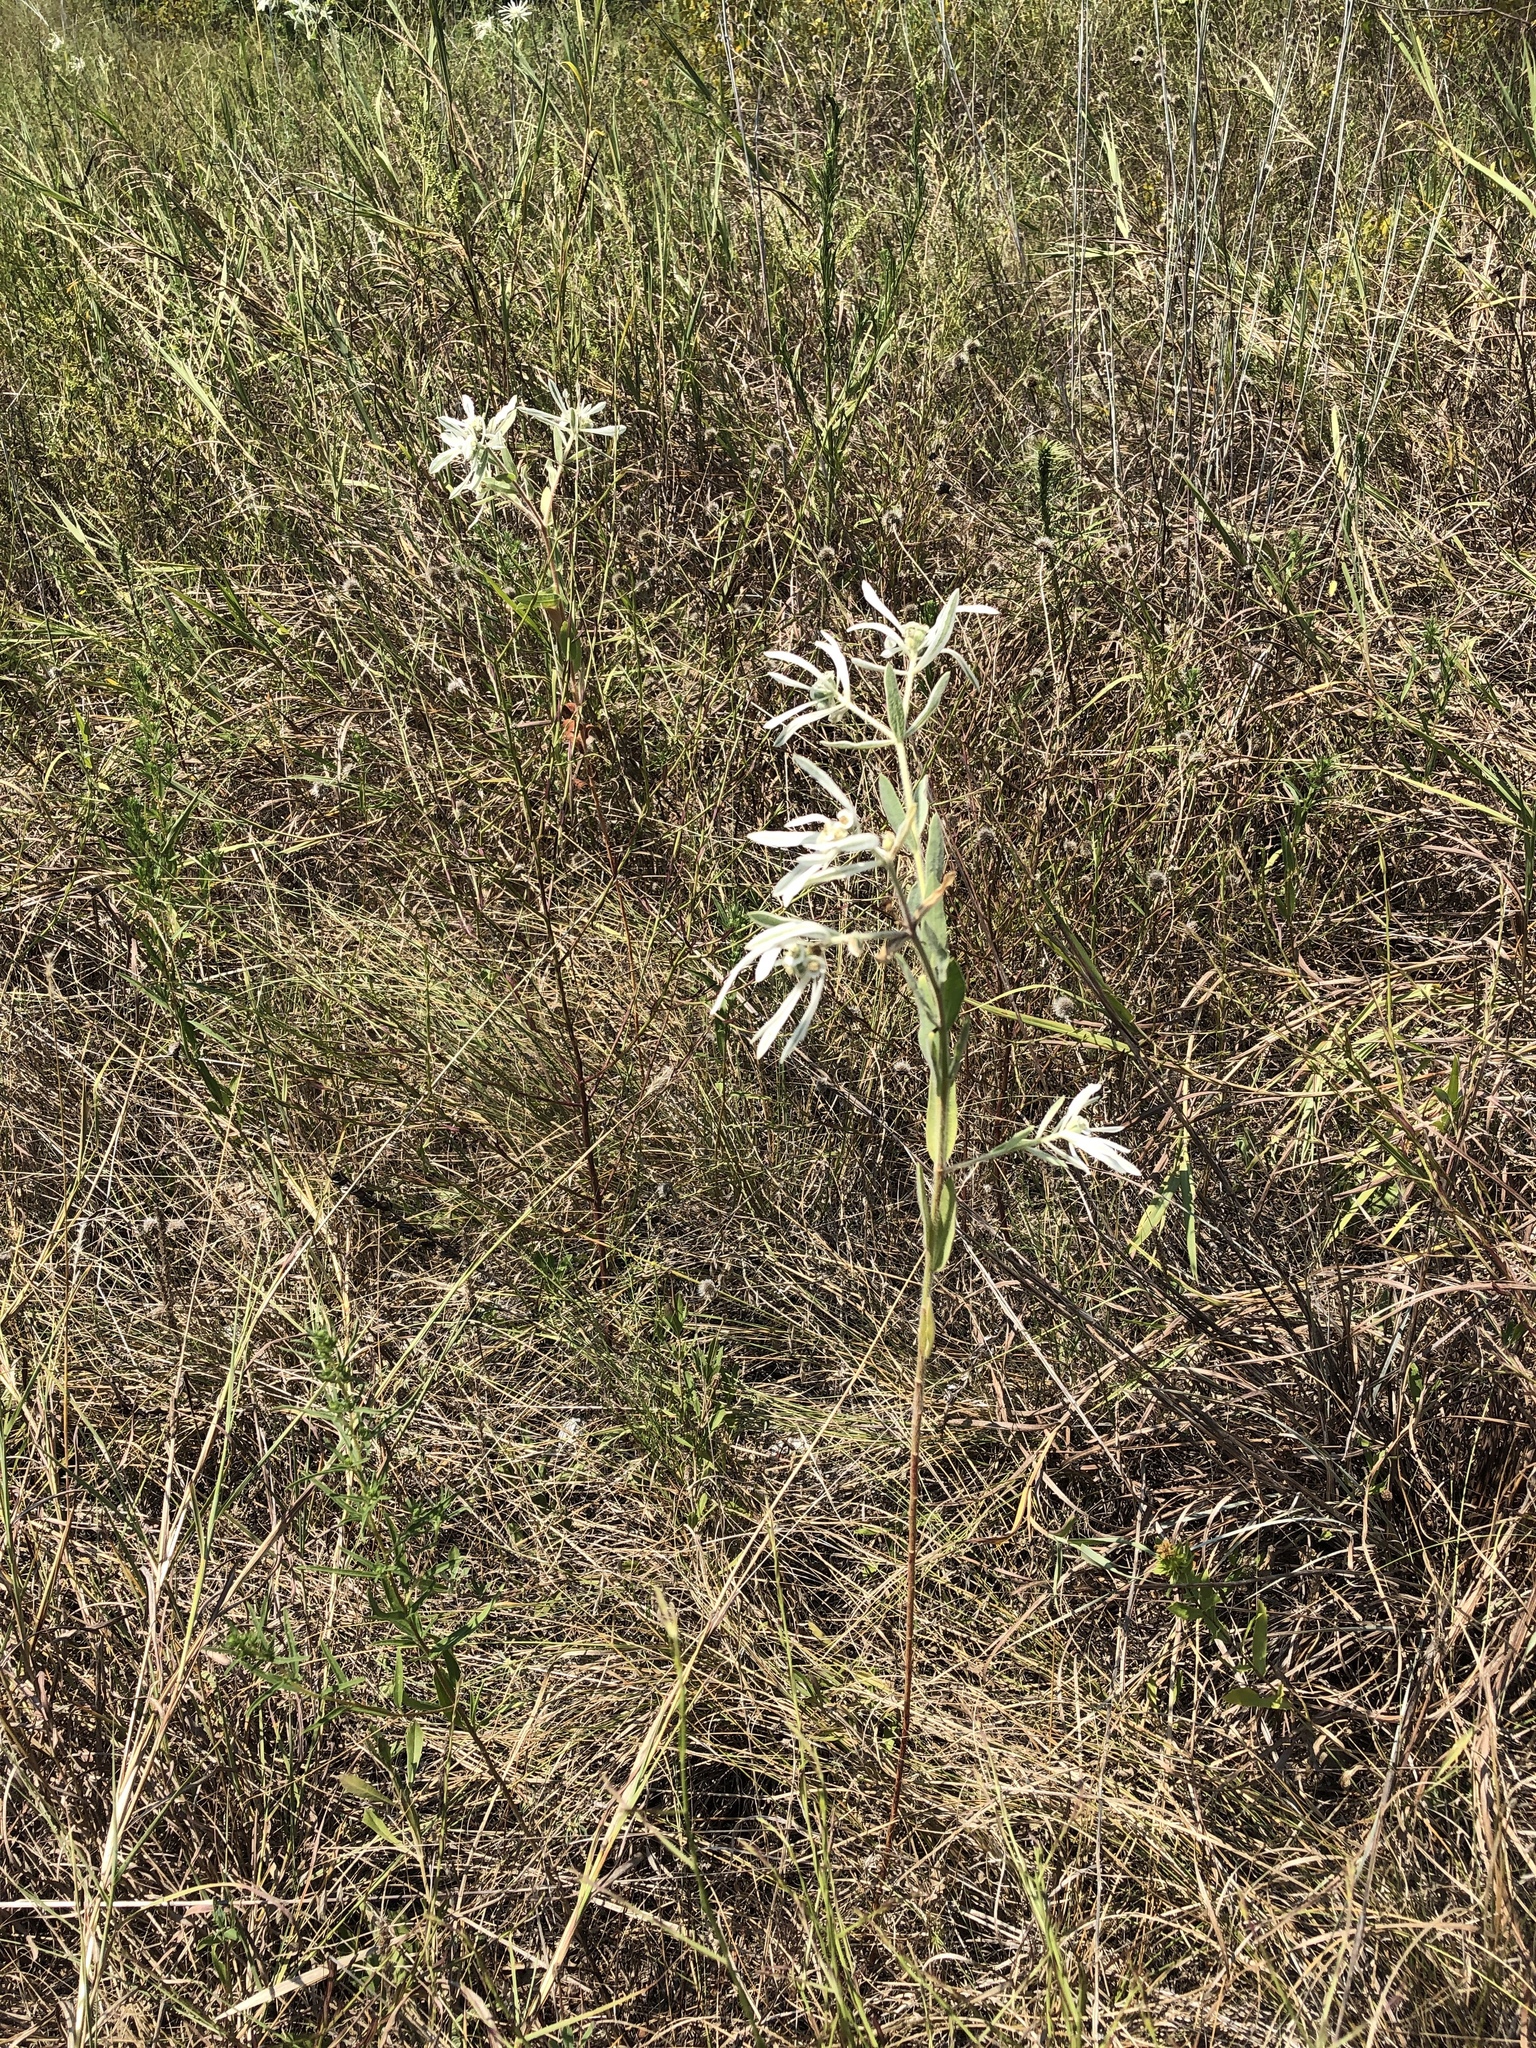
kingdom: Plantae
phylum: Tracheophyta
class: Magnoliopsida
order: Malpighiales
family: Euphorbiaceae
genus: Euphorbia
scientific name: Euphorbia bicolor
